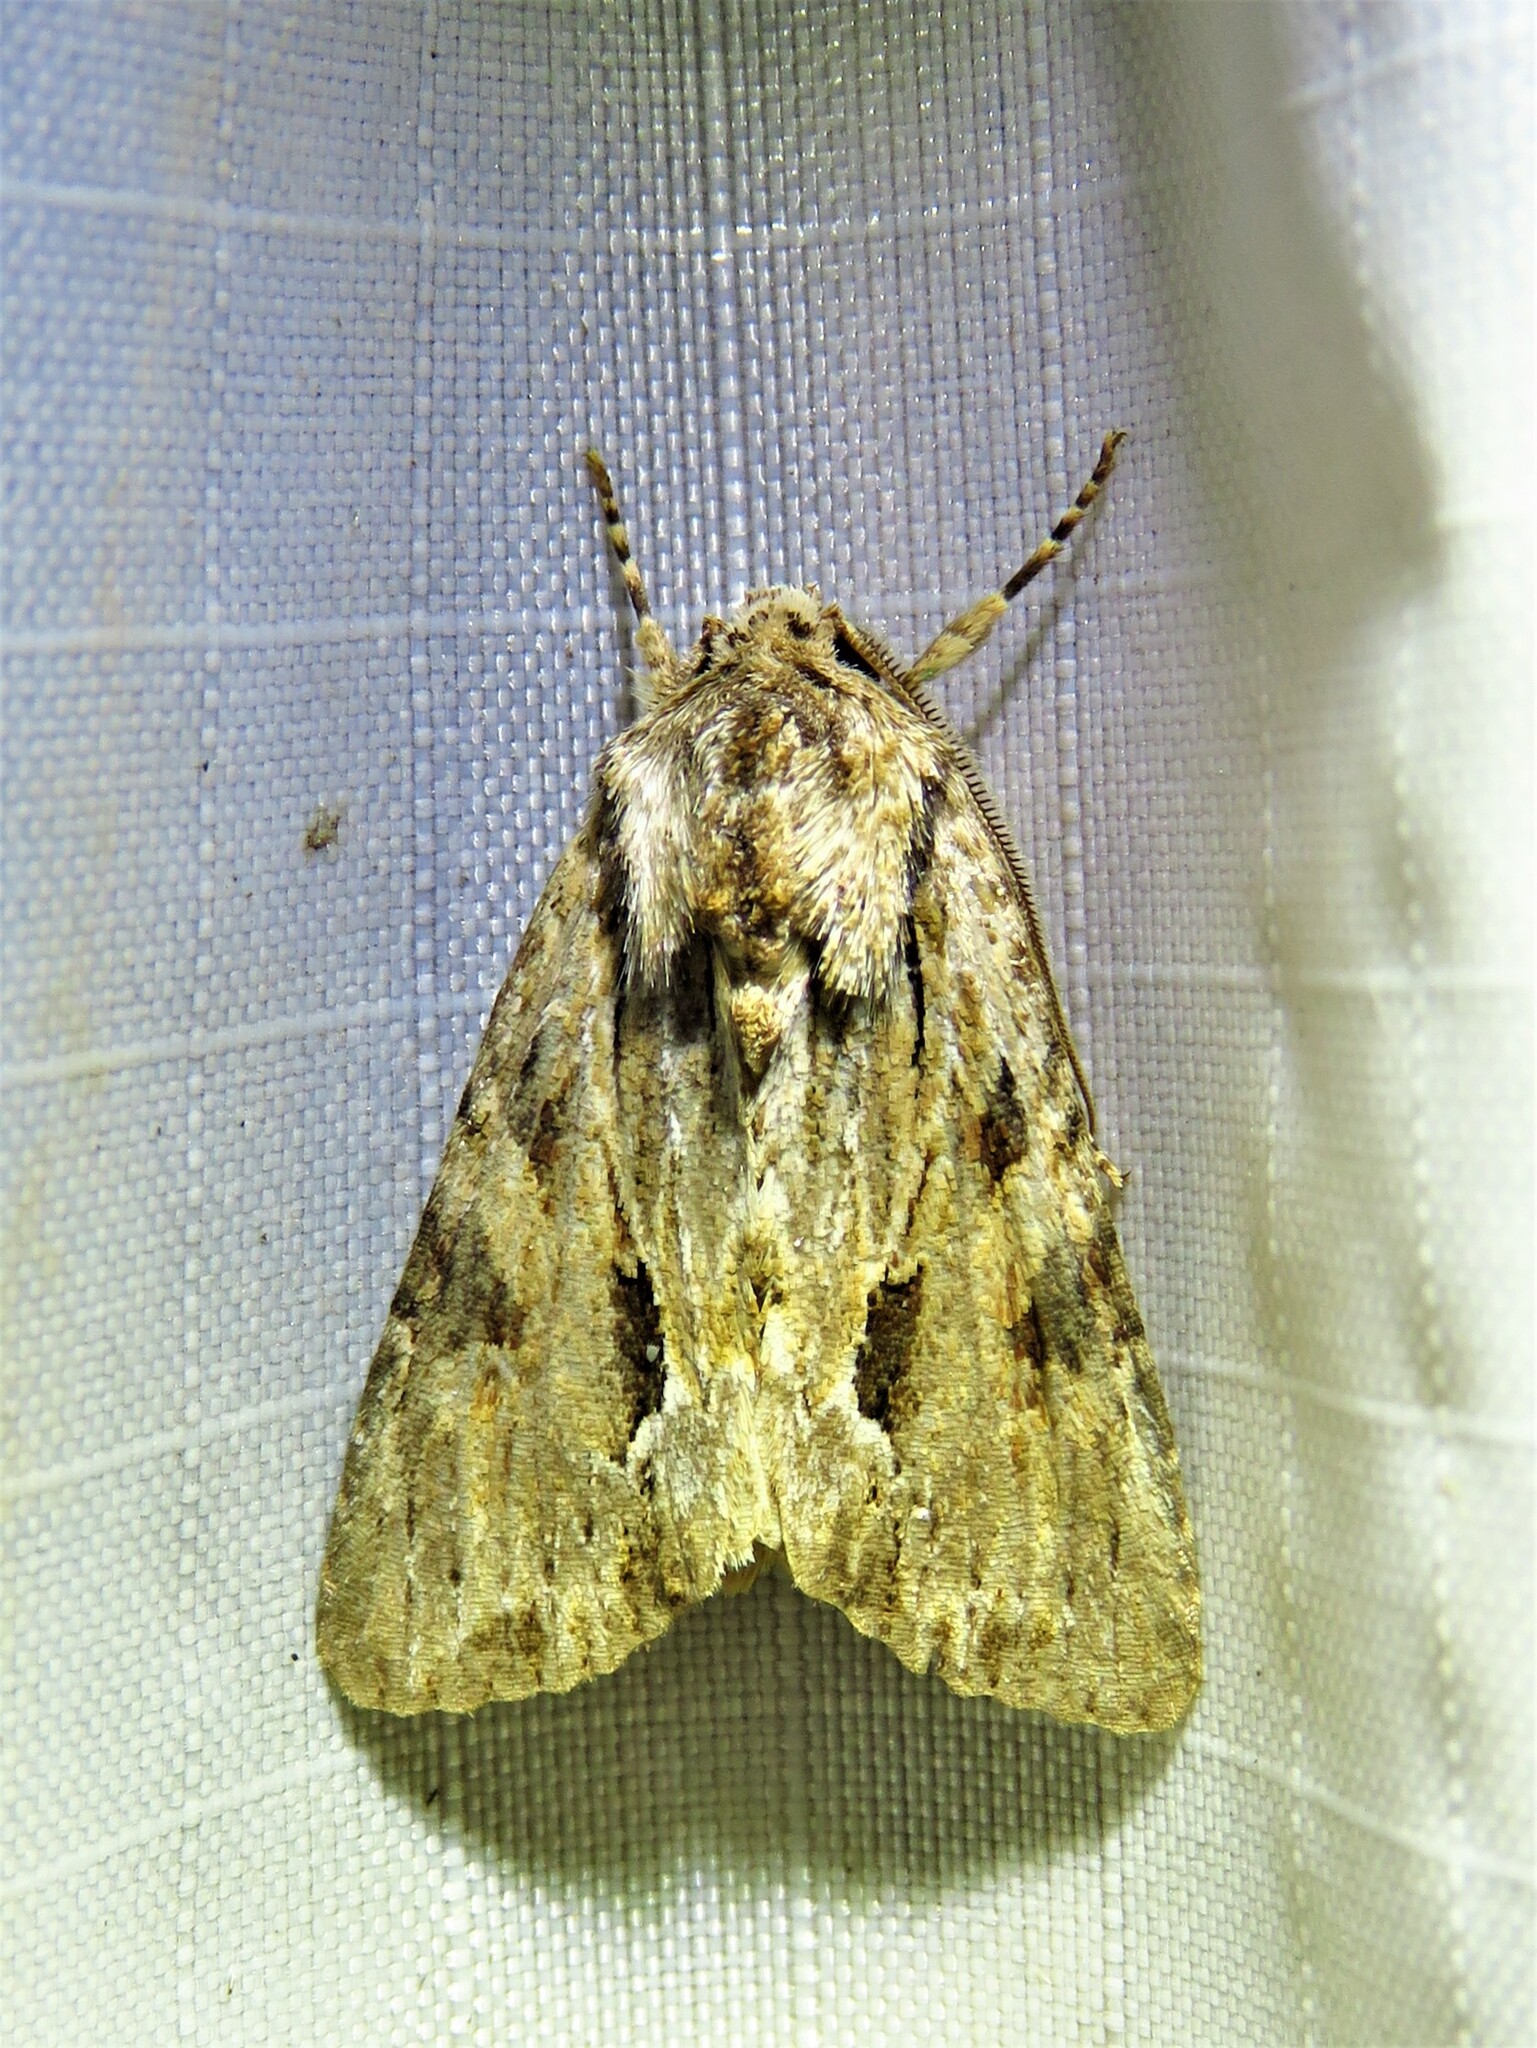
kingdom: Animalia
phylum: Arthropoda
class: Insecta
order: Lepidoptera
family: Noctuidae
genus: Achatia
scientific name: Achatia mucens
